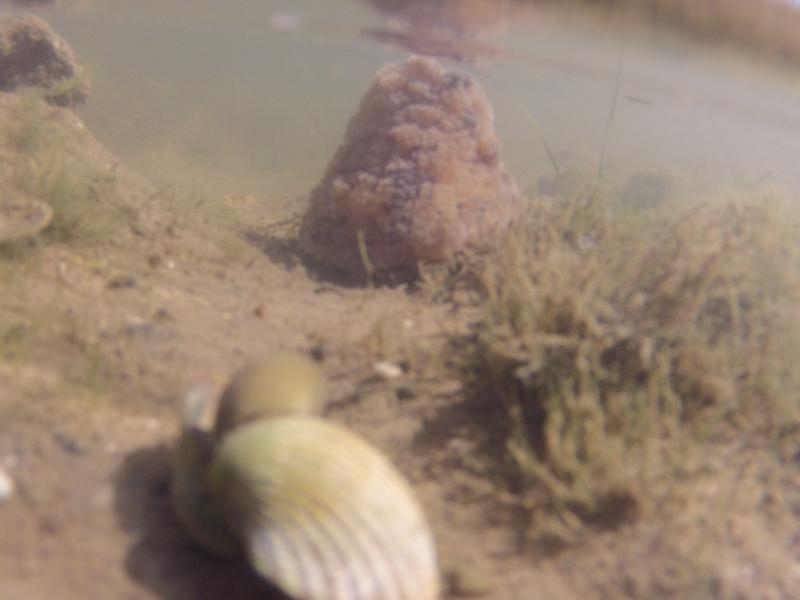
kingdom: Animalia
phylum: Cnidaria
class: Anthozoa
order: Actiniaria
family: Aliciidae
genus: Alicia
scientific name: Alicia mirabilis
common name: Berried anemone
